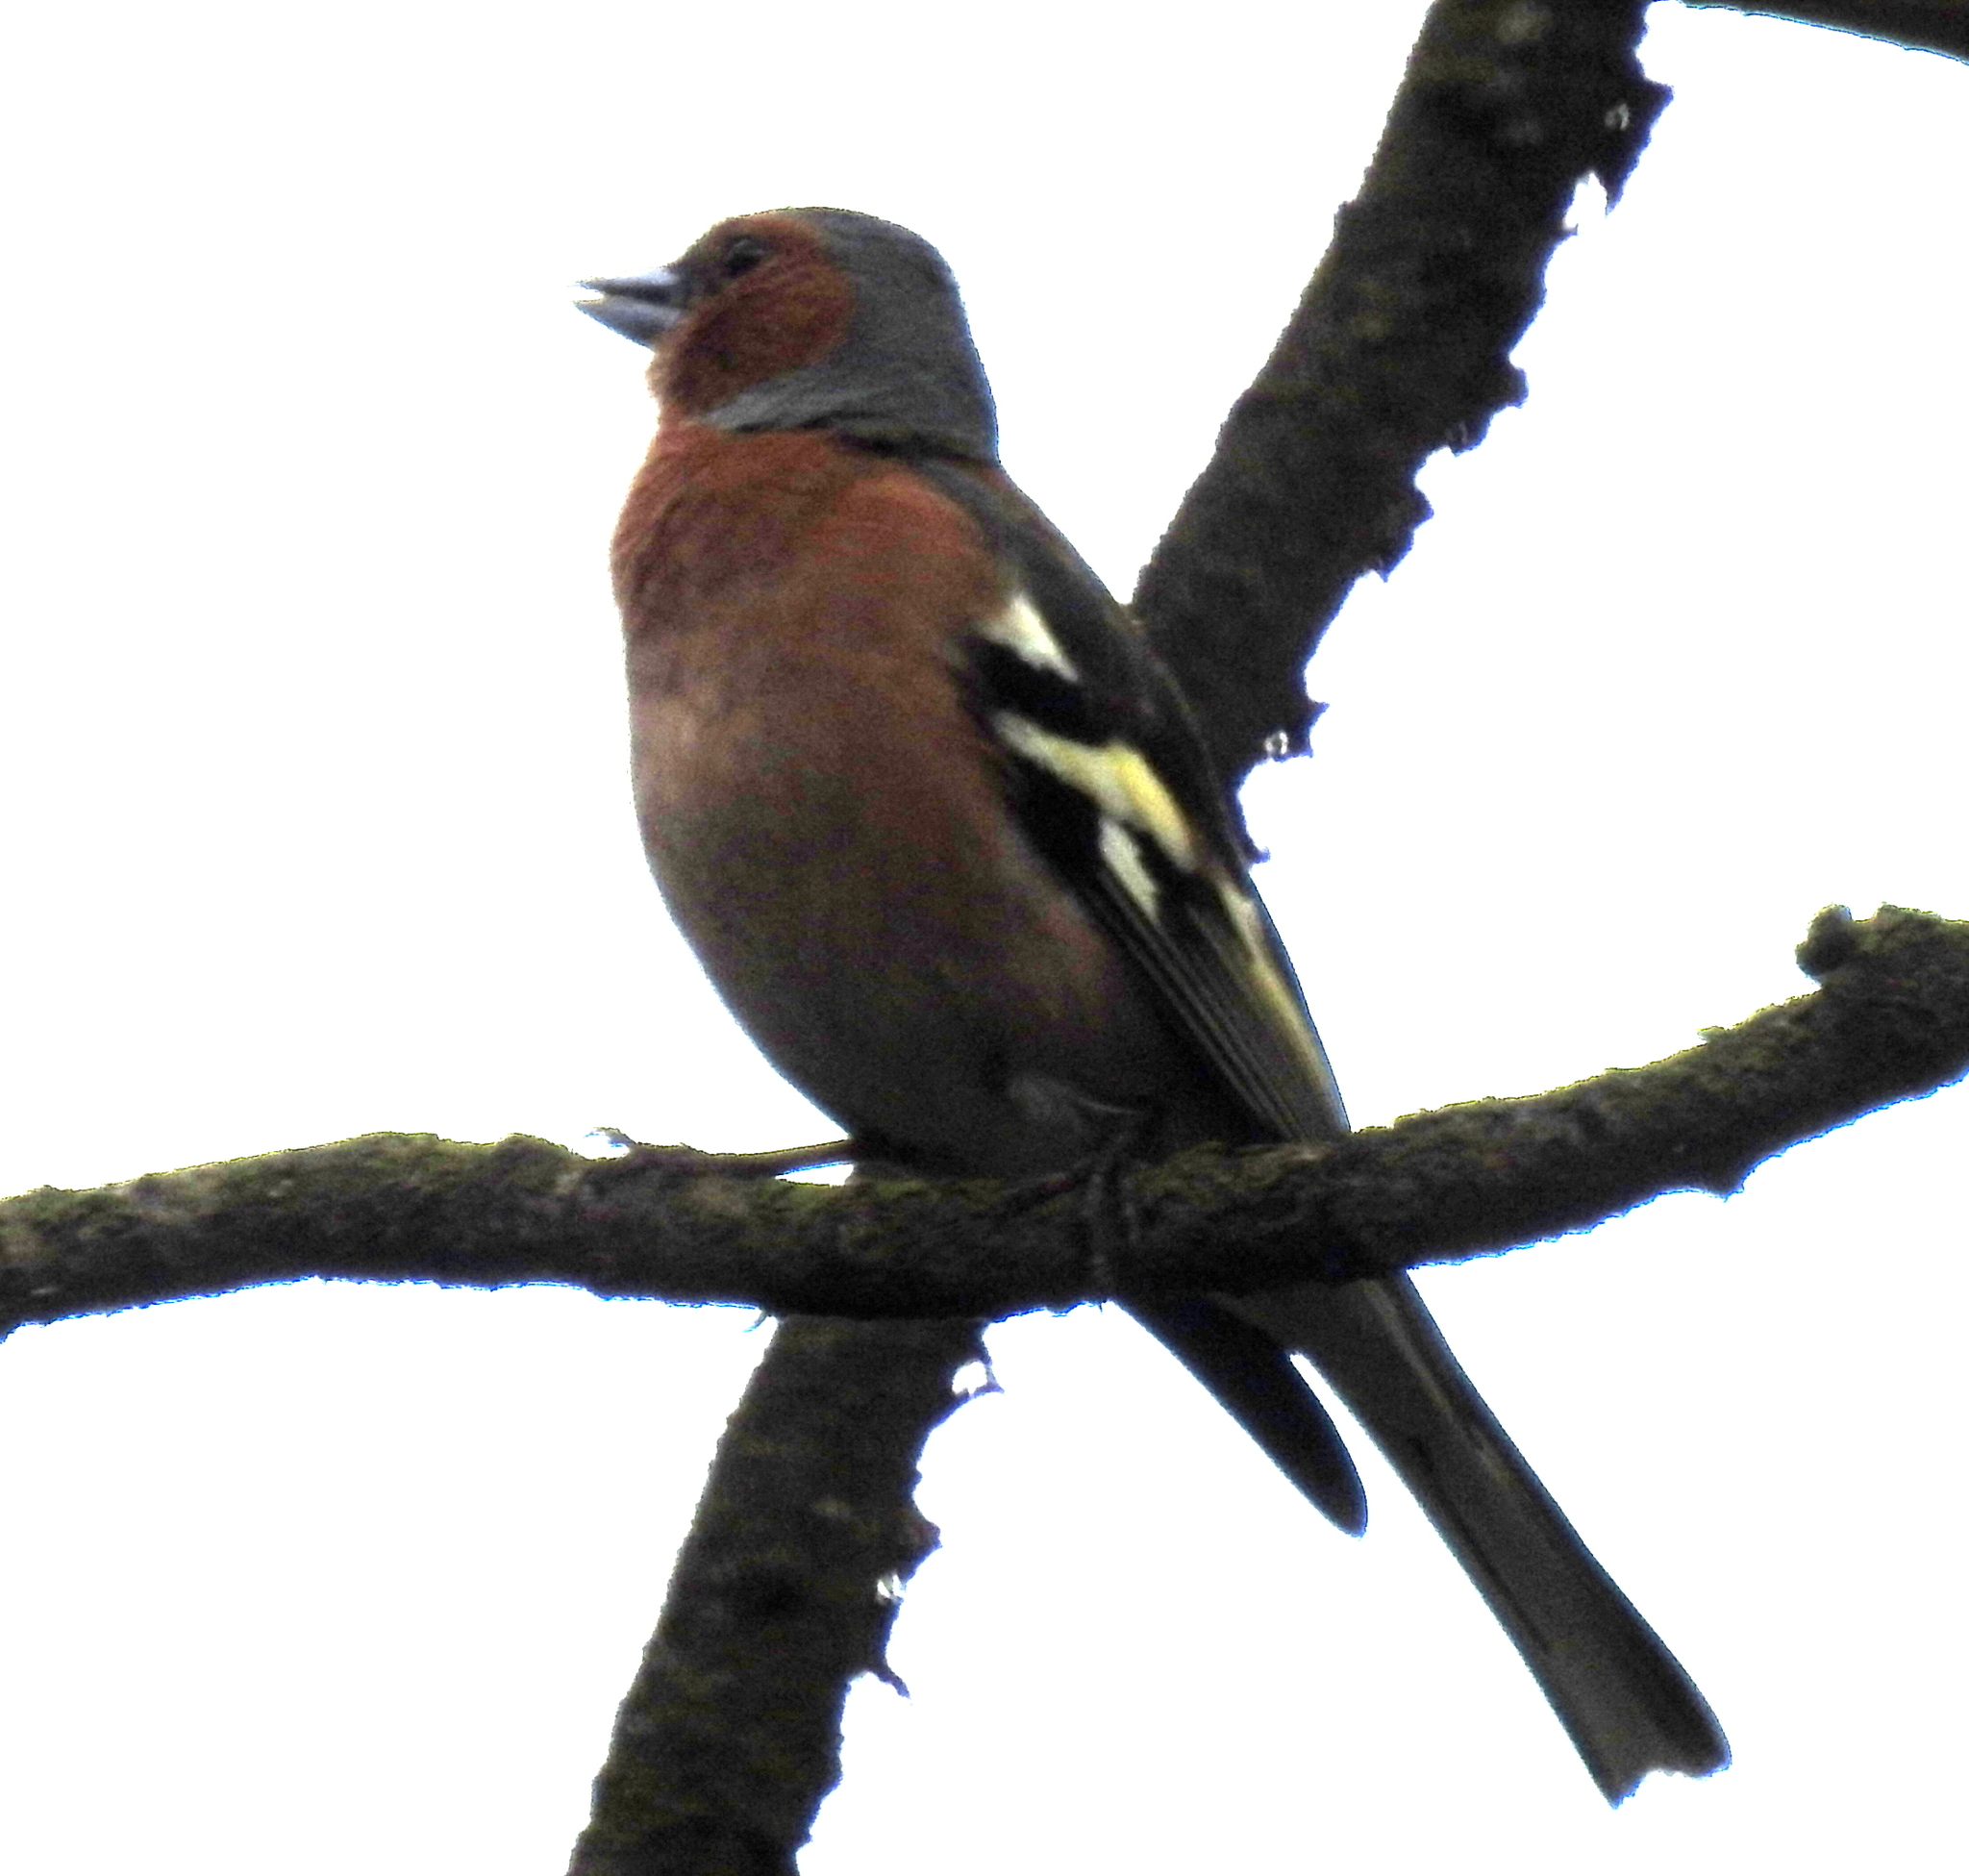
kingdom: Animalia
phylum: Chordata
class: Aves
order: Passeriformes
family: Fringillidae
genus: Fringilla
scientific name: Fringilla coelebs
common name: Common chaffinch
